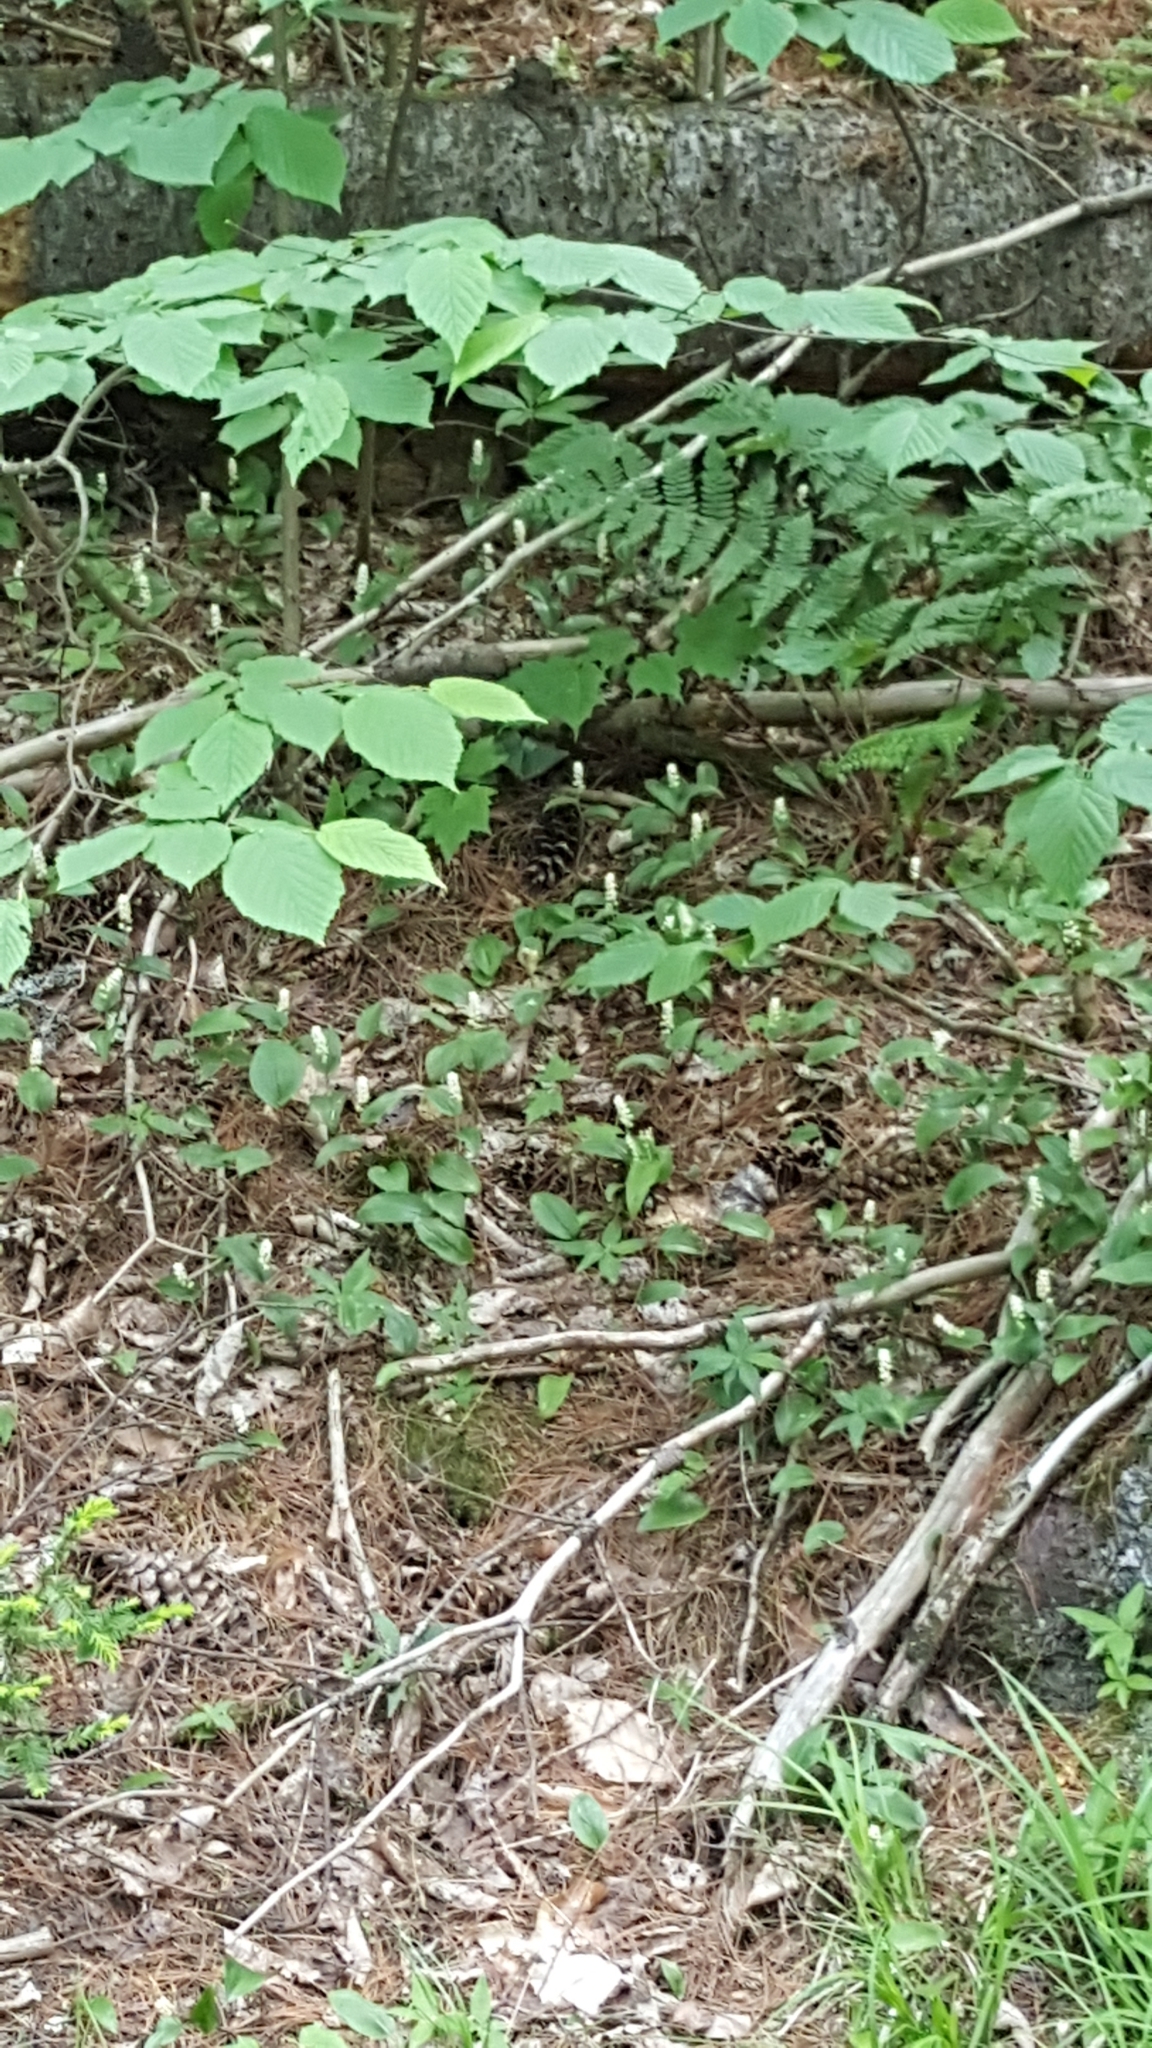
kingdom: Plantae
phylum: Tracheophyta
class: Liliopsida
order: Asparagales
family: Asparagaceae
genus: Maianthemum
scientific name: Maianthemum canadense
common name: False lily-of-the-valley
